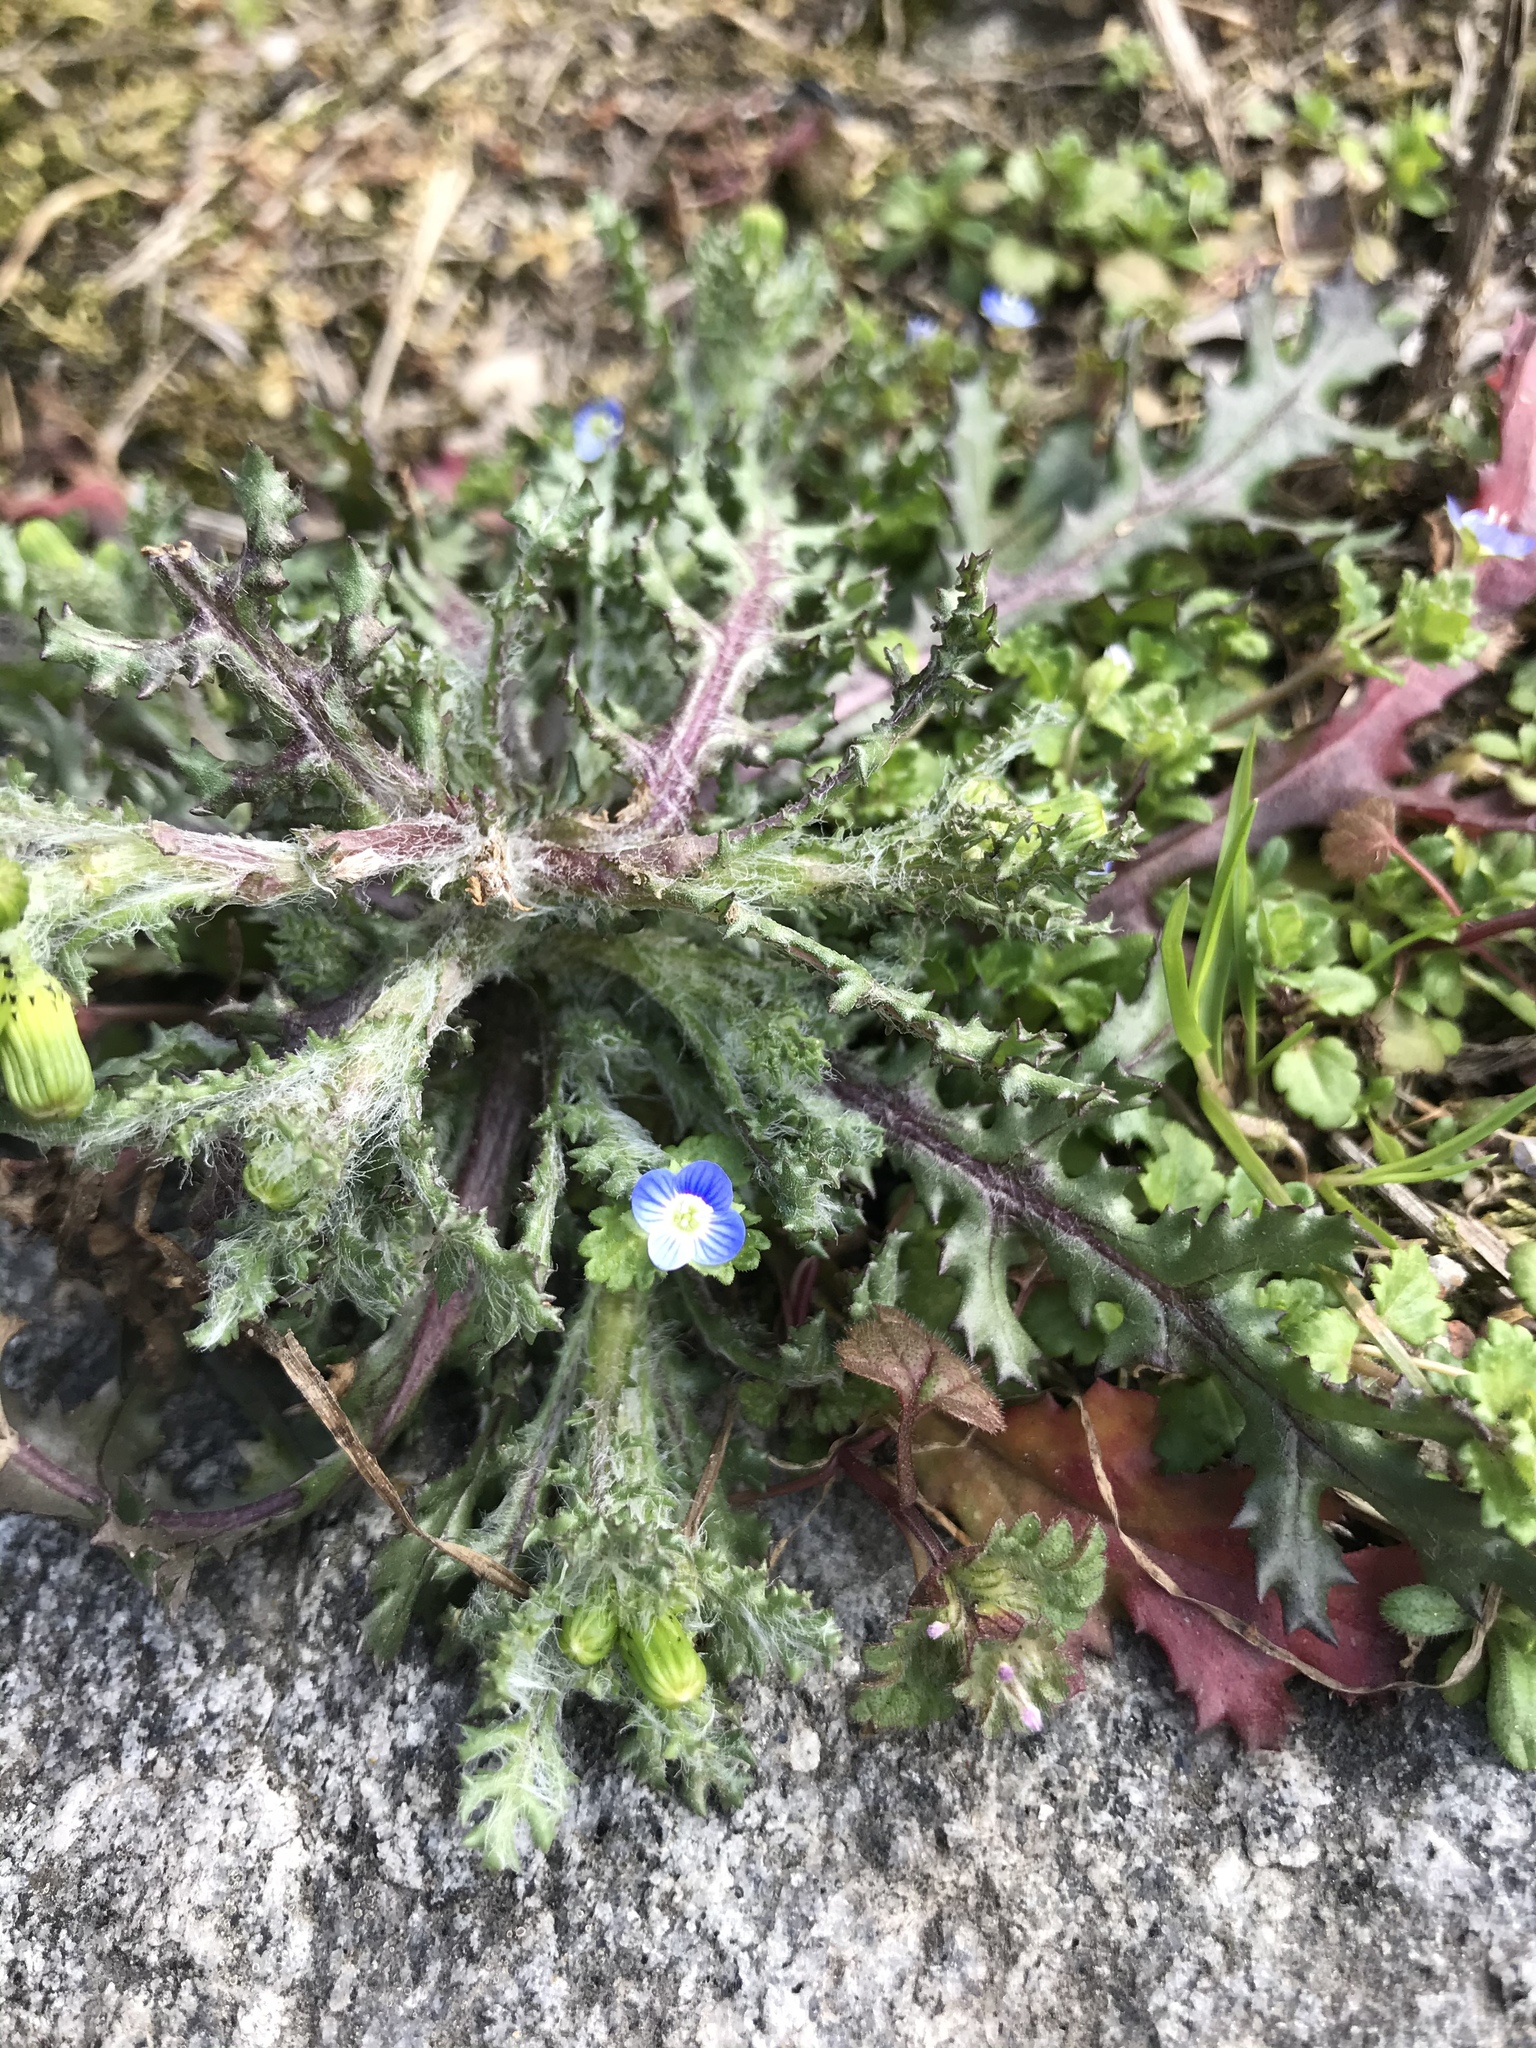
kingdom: Plantae
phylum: Tracheophyta
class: Magnoliopsida
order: Lamiales
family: Plantaginaceae
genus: Veronica
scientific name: Veronica persica
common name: Common field-speedwell
